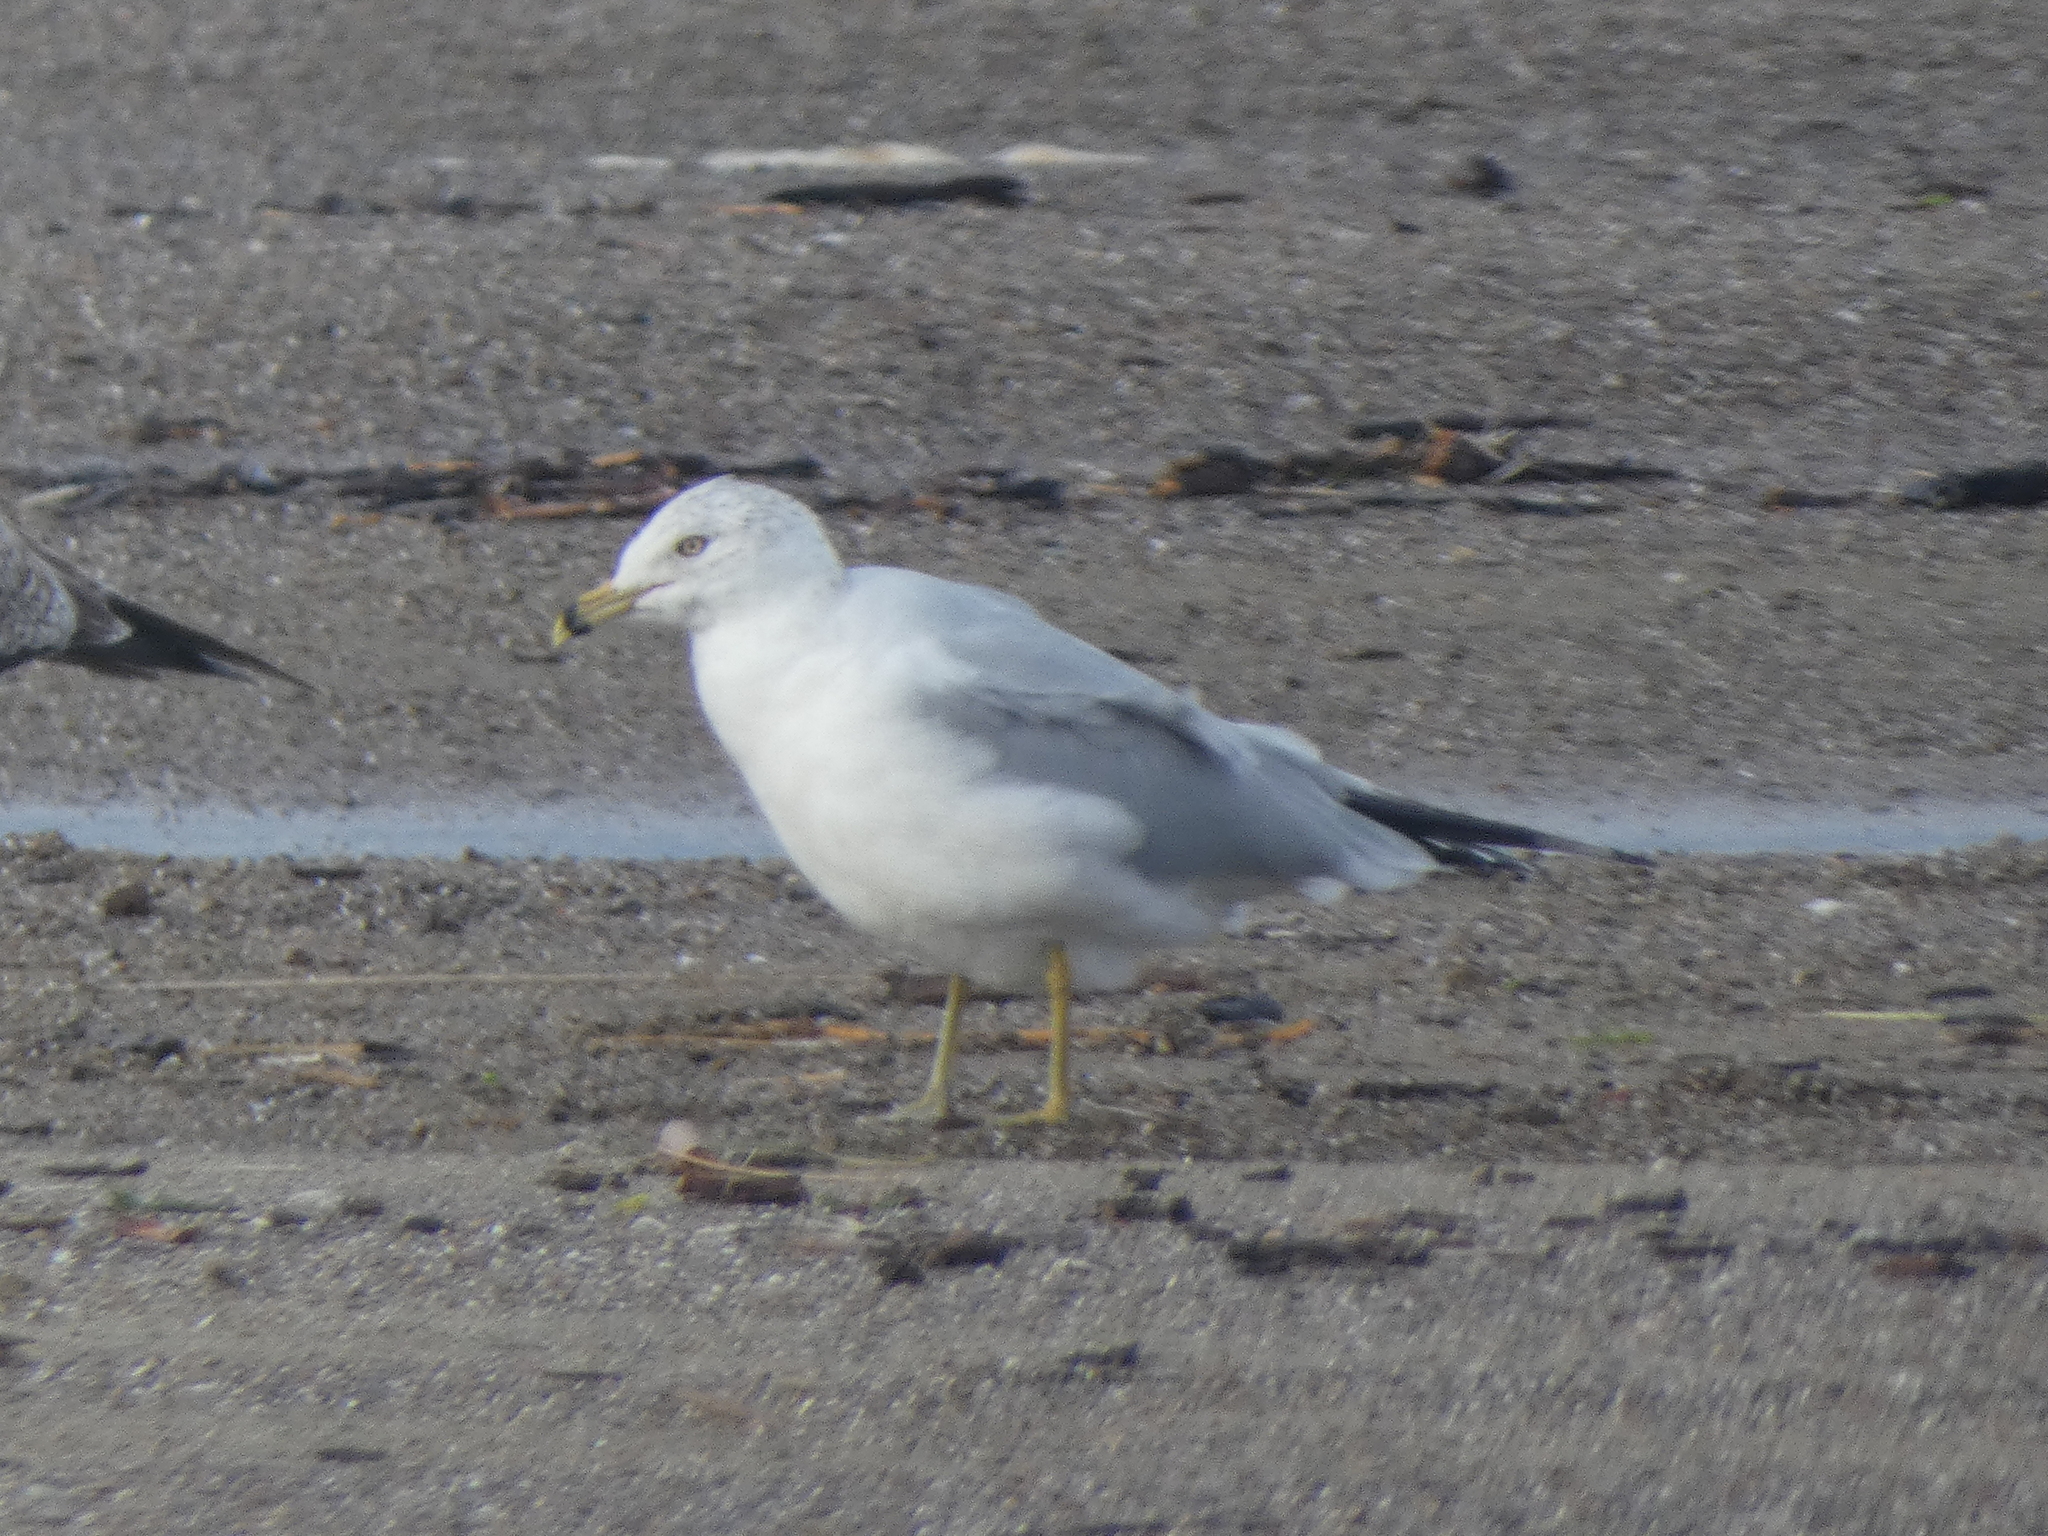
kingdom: Animalia
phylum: Chordata
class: Aves
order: Charadriiformes
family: Laridae
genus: Larus
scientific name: Larus delawarensis
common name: Ring-billed gull
